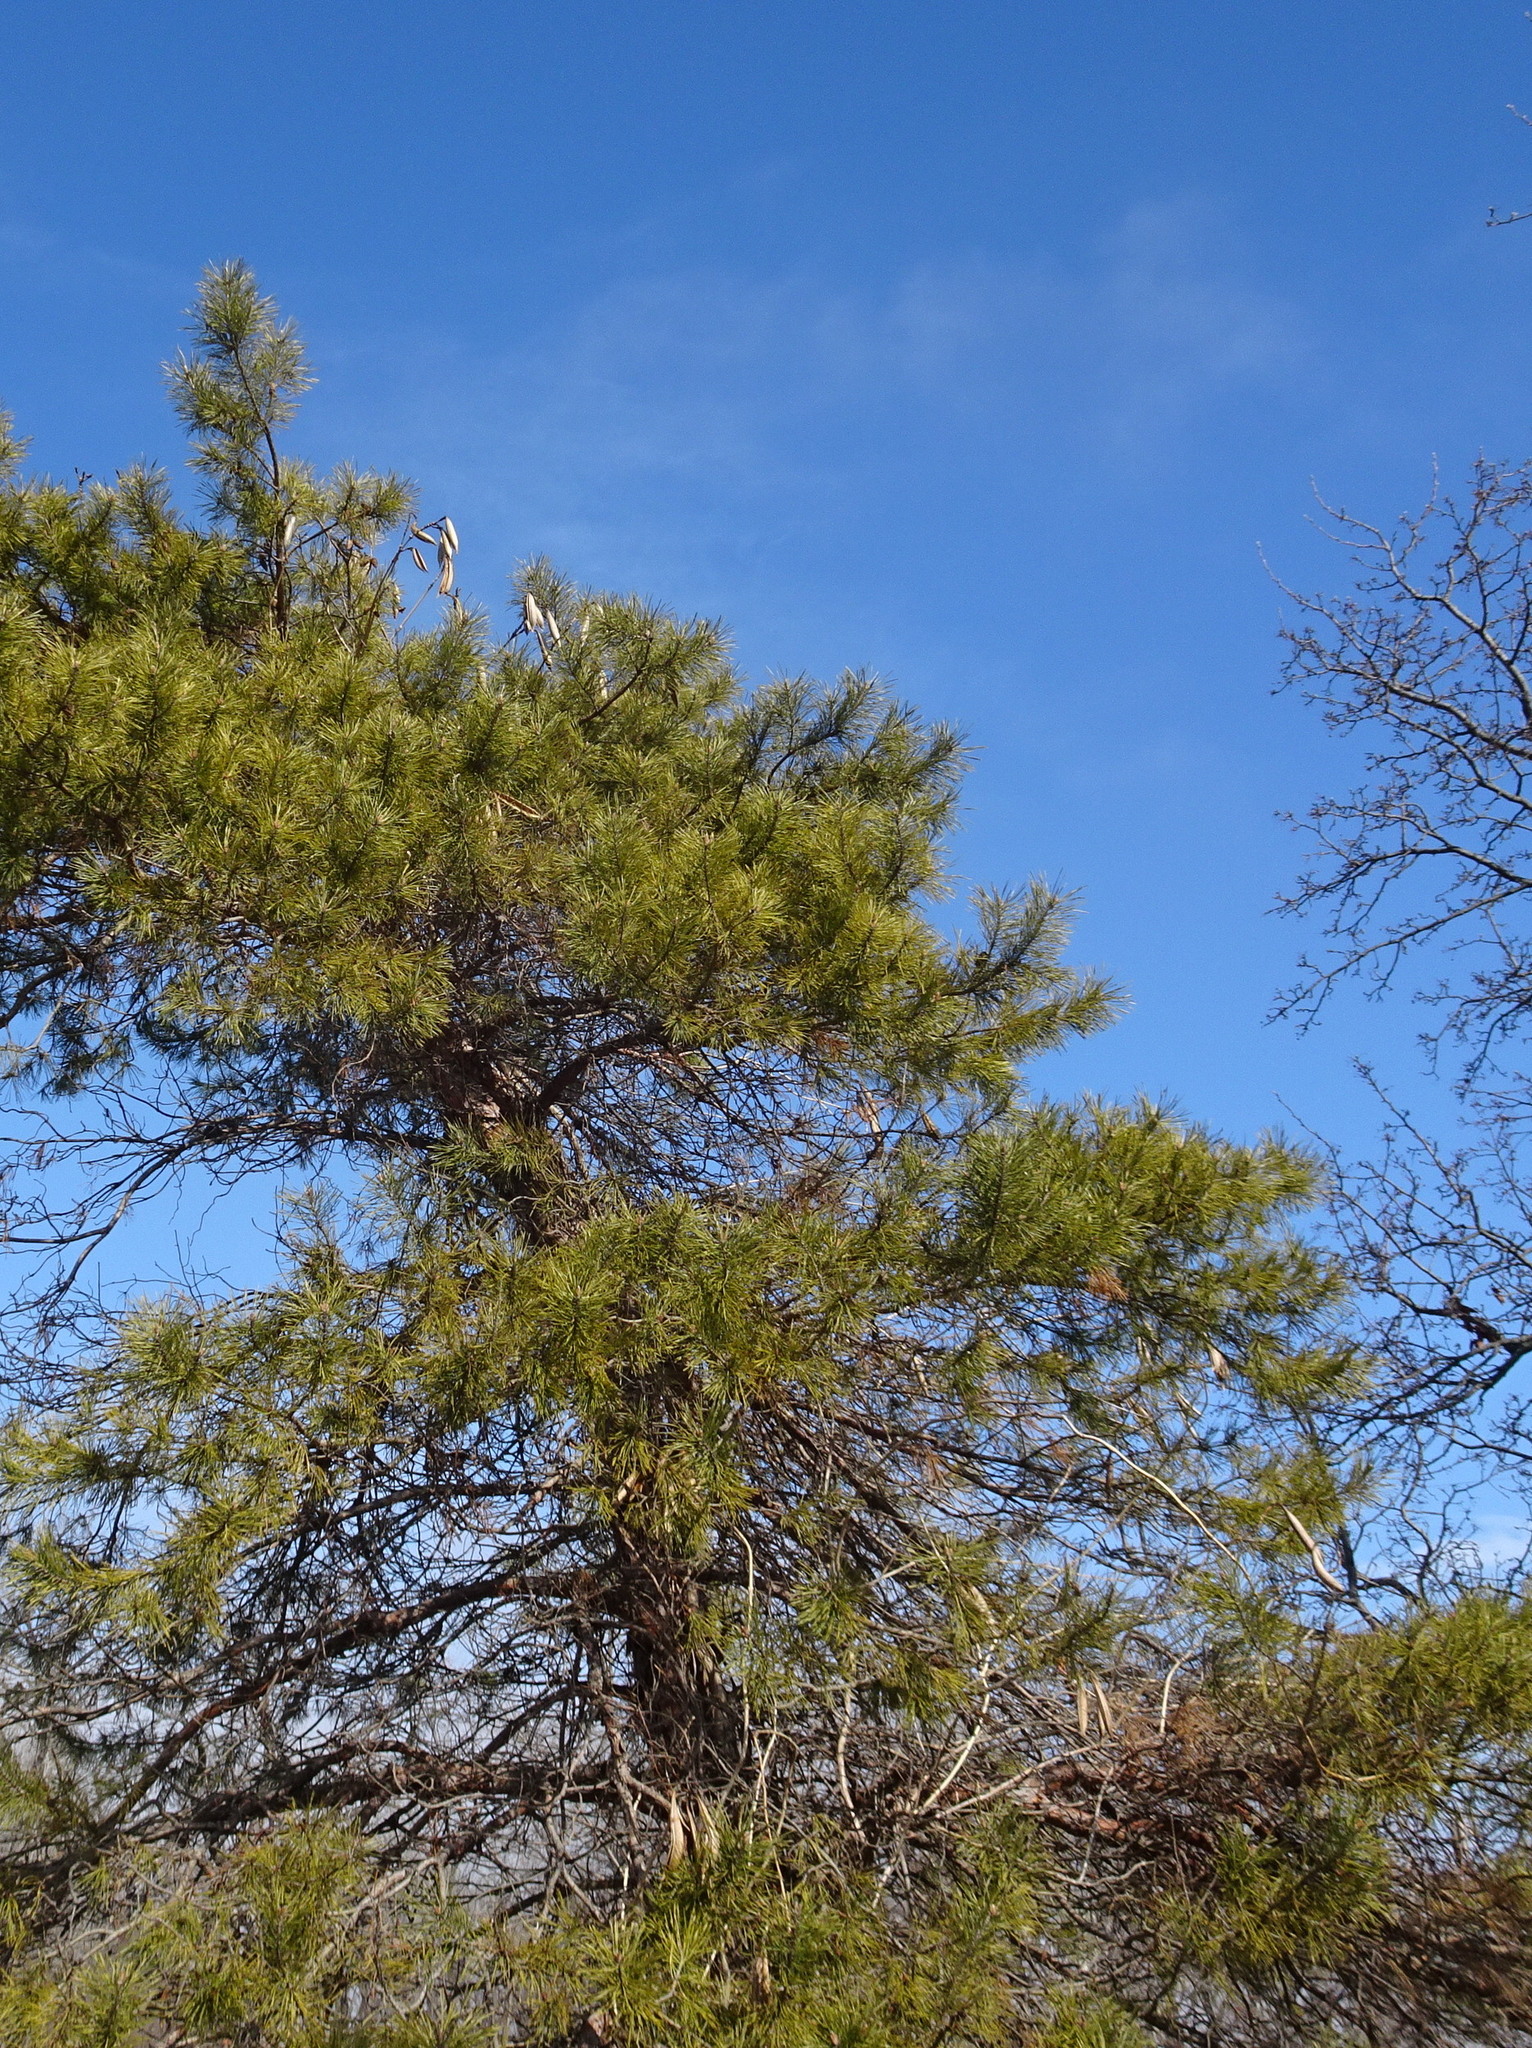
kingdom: Plantae
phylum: Tracheophyta
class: Magnoliopsida
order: Lamiales
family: Bignoniaceae
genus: Campsis
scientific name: Campsis radicans
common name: Trumpet-creeper
